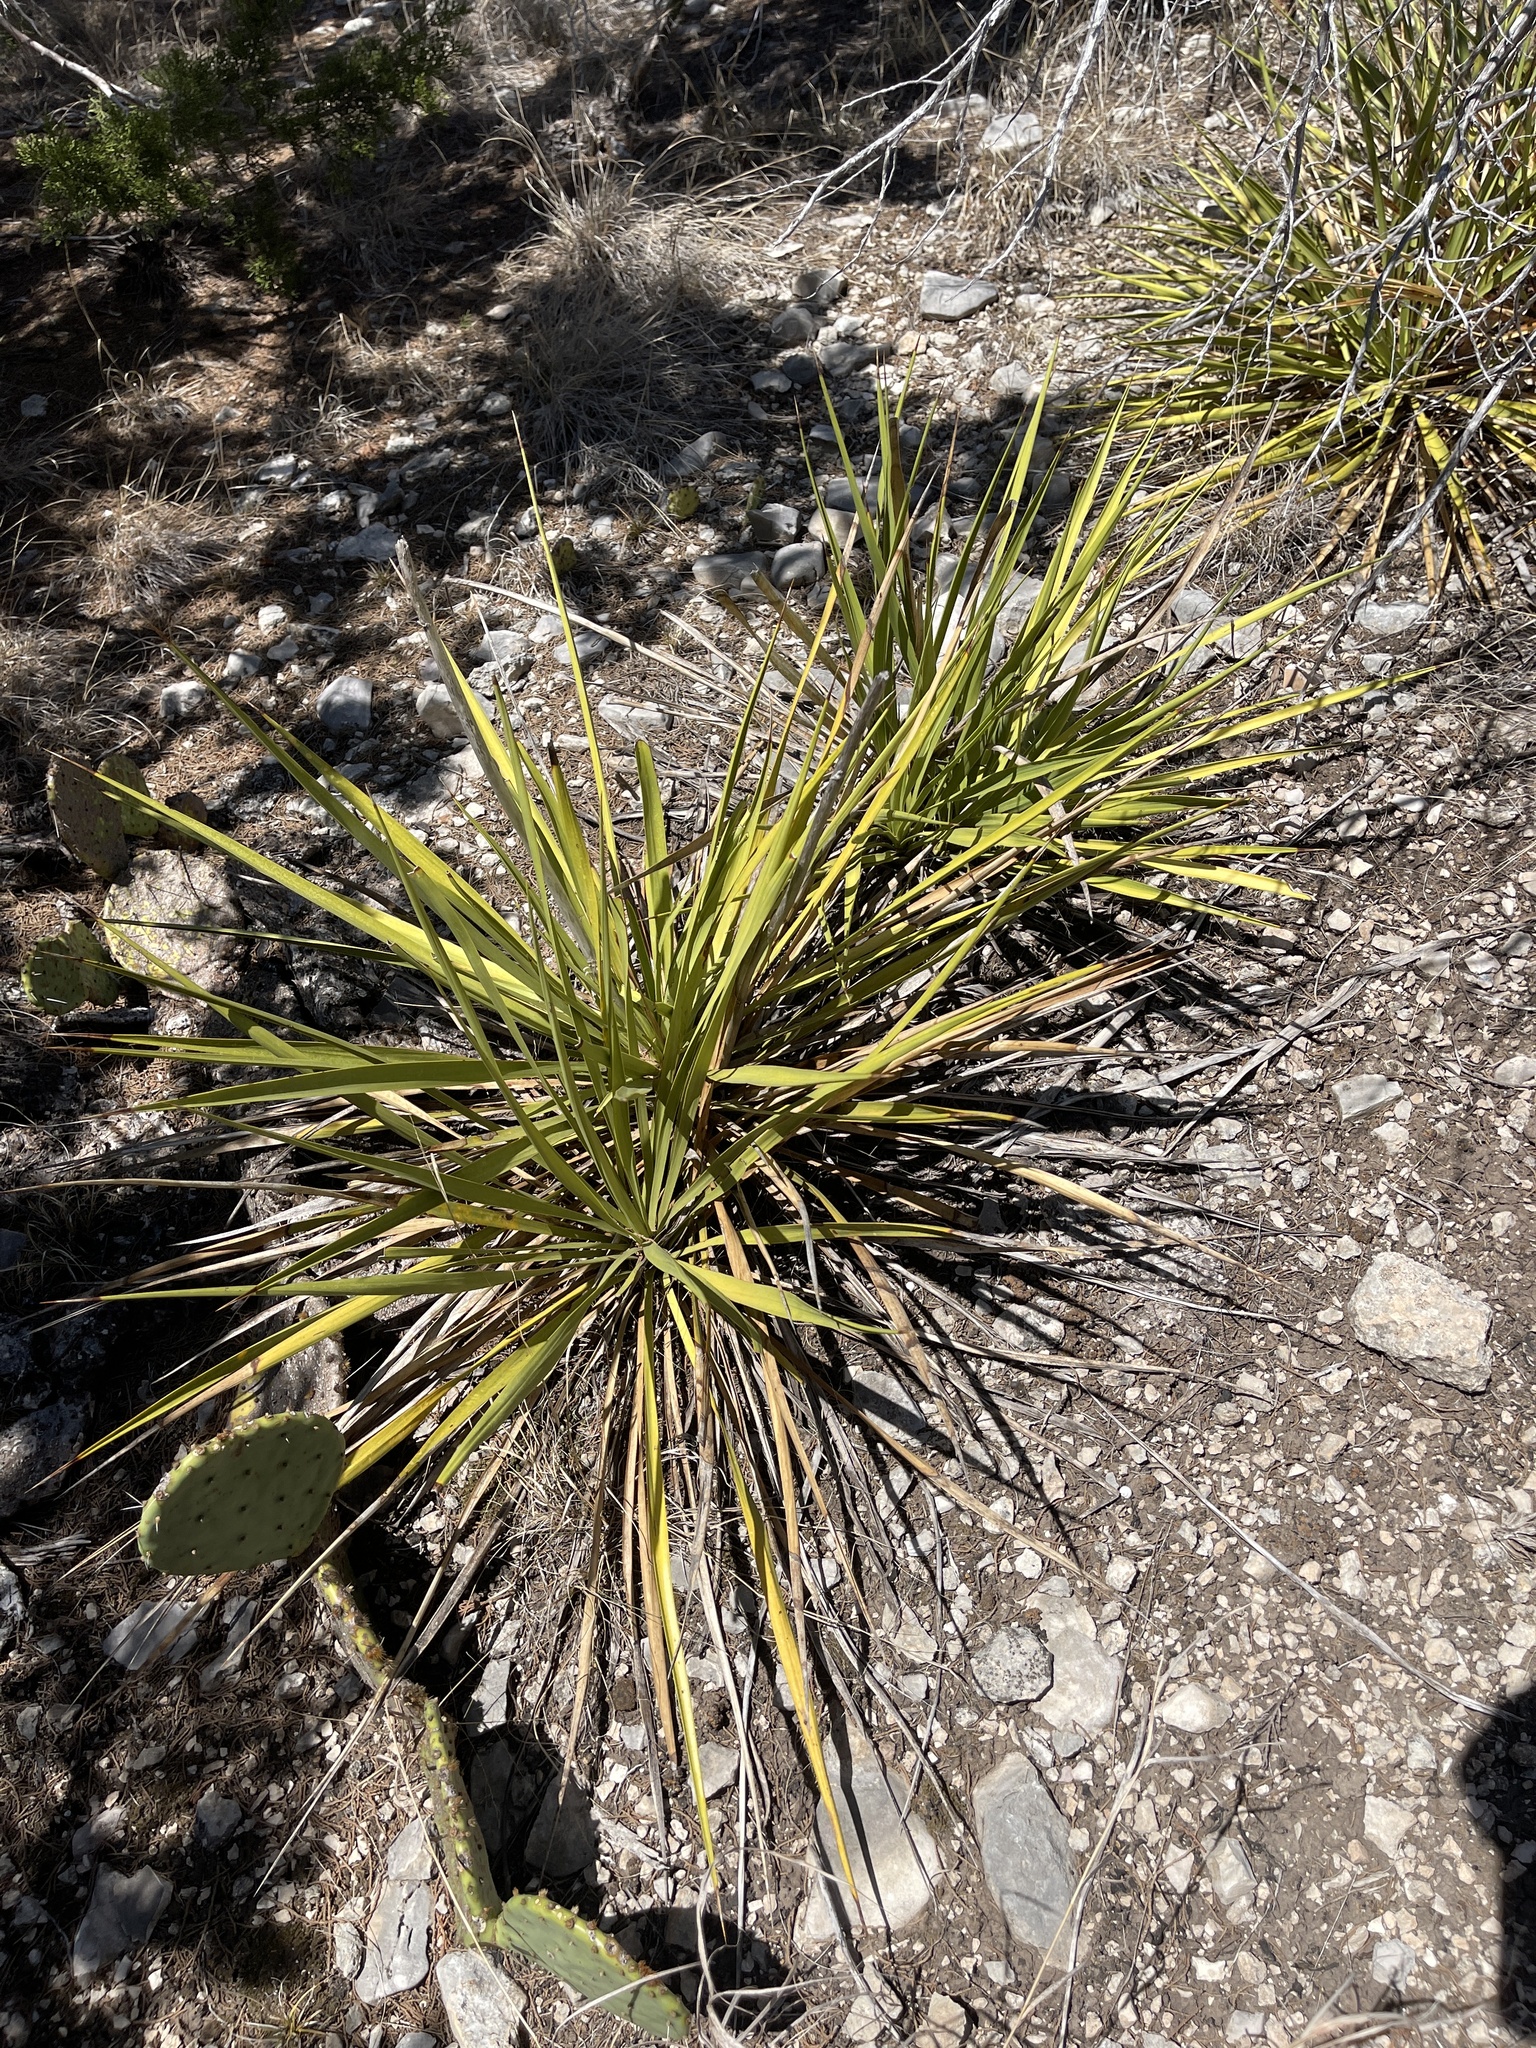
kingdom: Plantae
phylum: Tracheophyta
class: Liliopsida
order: Asparagales
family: Asparagaceae
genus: Yucca
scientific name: Yucca reverchonii
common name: San angelo yucca
